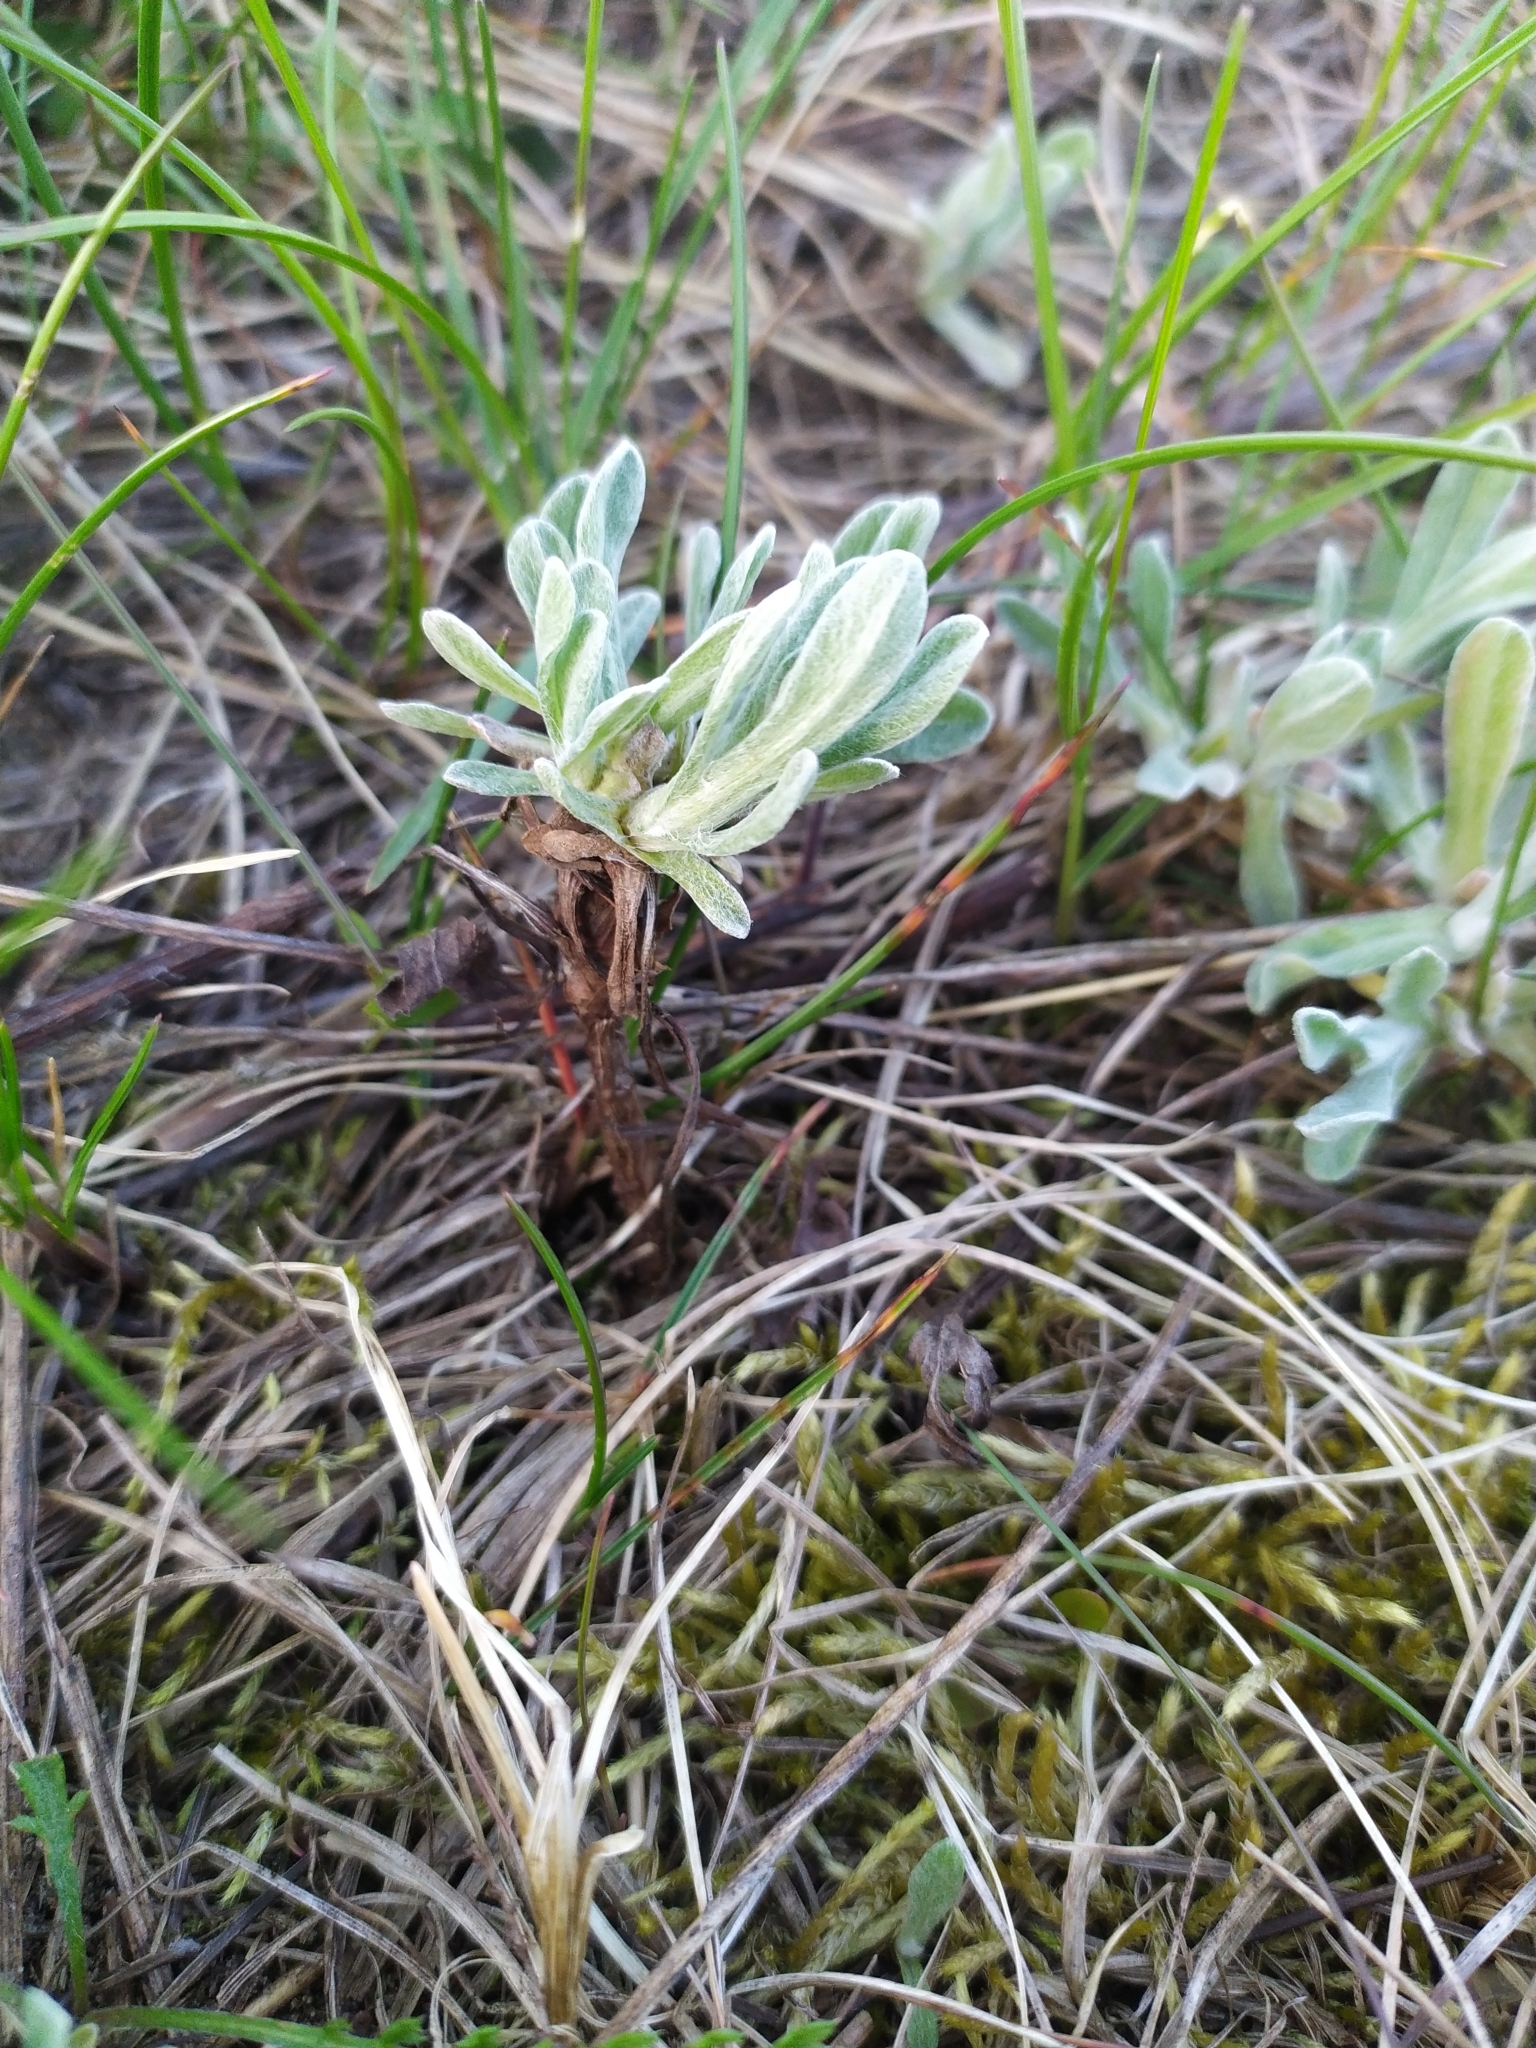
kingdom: Plantae
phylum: Tracheophyta
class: Magnoliopsida
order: Asterales
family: Asteraceae
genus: Helichrysum
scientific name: Helichrysum arenarium
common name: Strawflower
